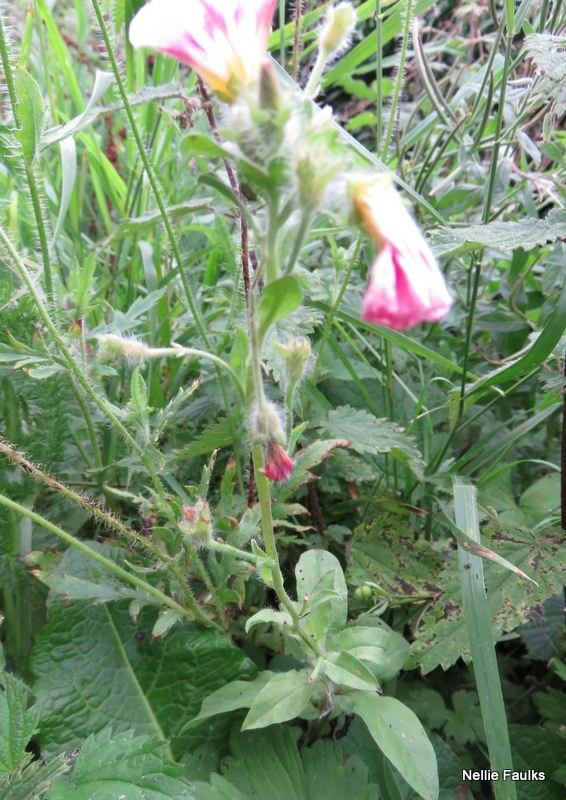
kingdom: Plantae
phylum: Tracheophyta
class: Magnoliopsida
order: Solanales
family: Convolvulaceae
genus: Convolvulus
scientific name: Convolvulus tricolor
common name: Dwarf morning-glory
